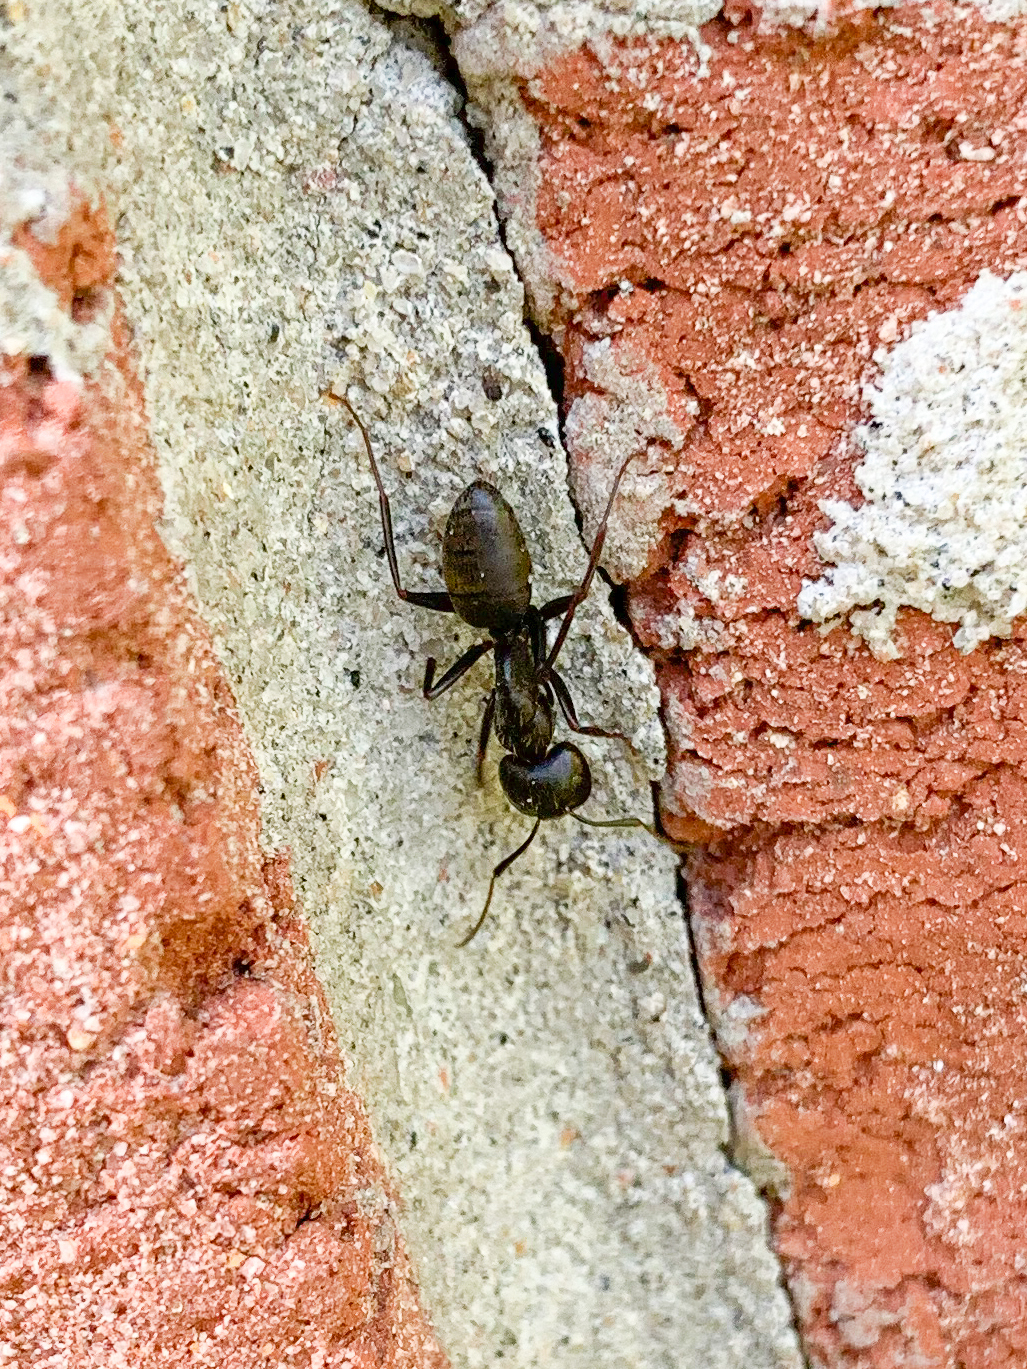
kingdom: Animalia
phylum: Arthropoda
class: Insecta
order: Hymenoptera
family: Formicidae
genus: Camponotus
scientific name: Camponotus pennsylvanicus
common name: Black carpenter ant
